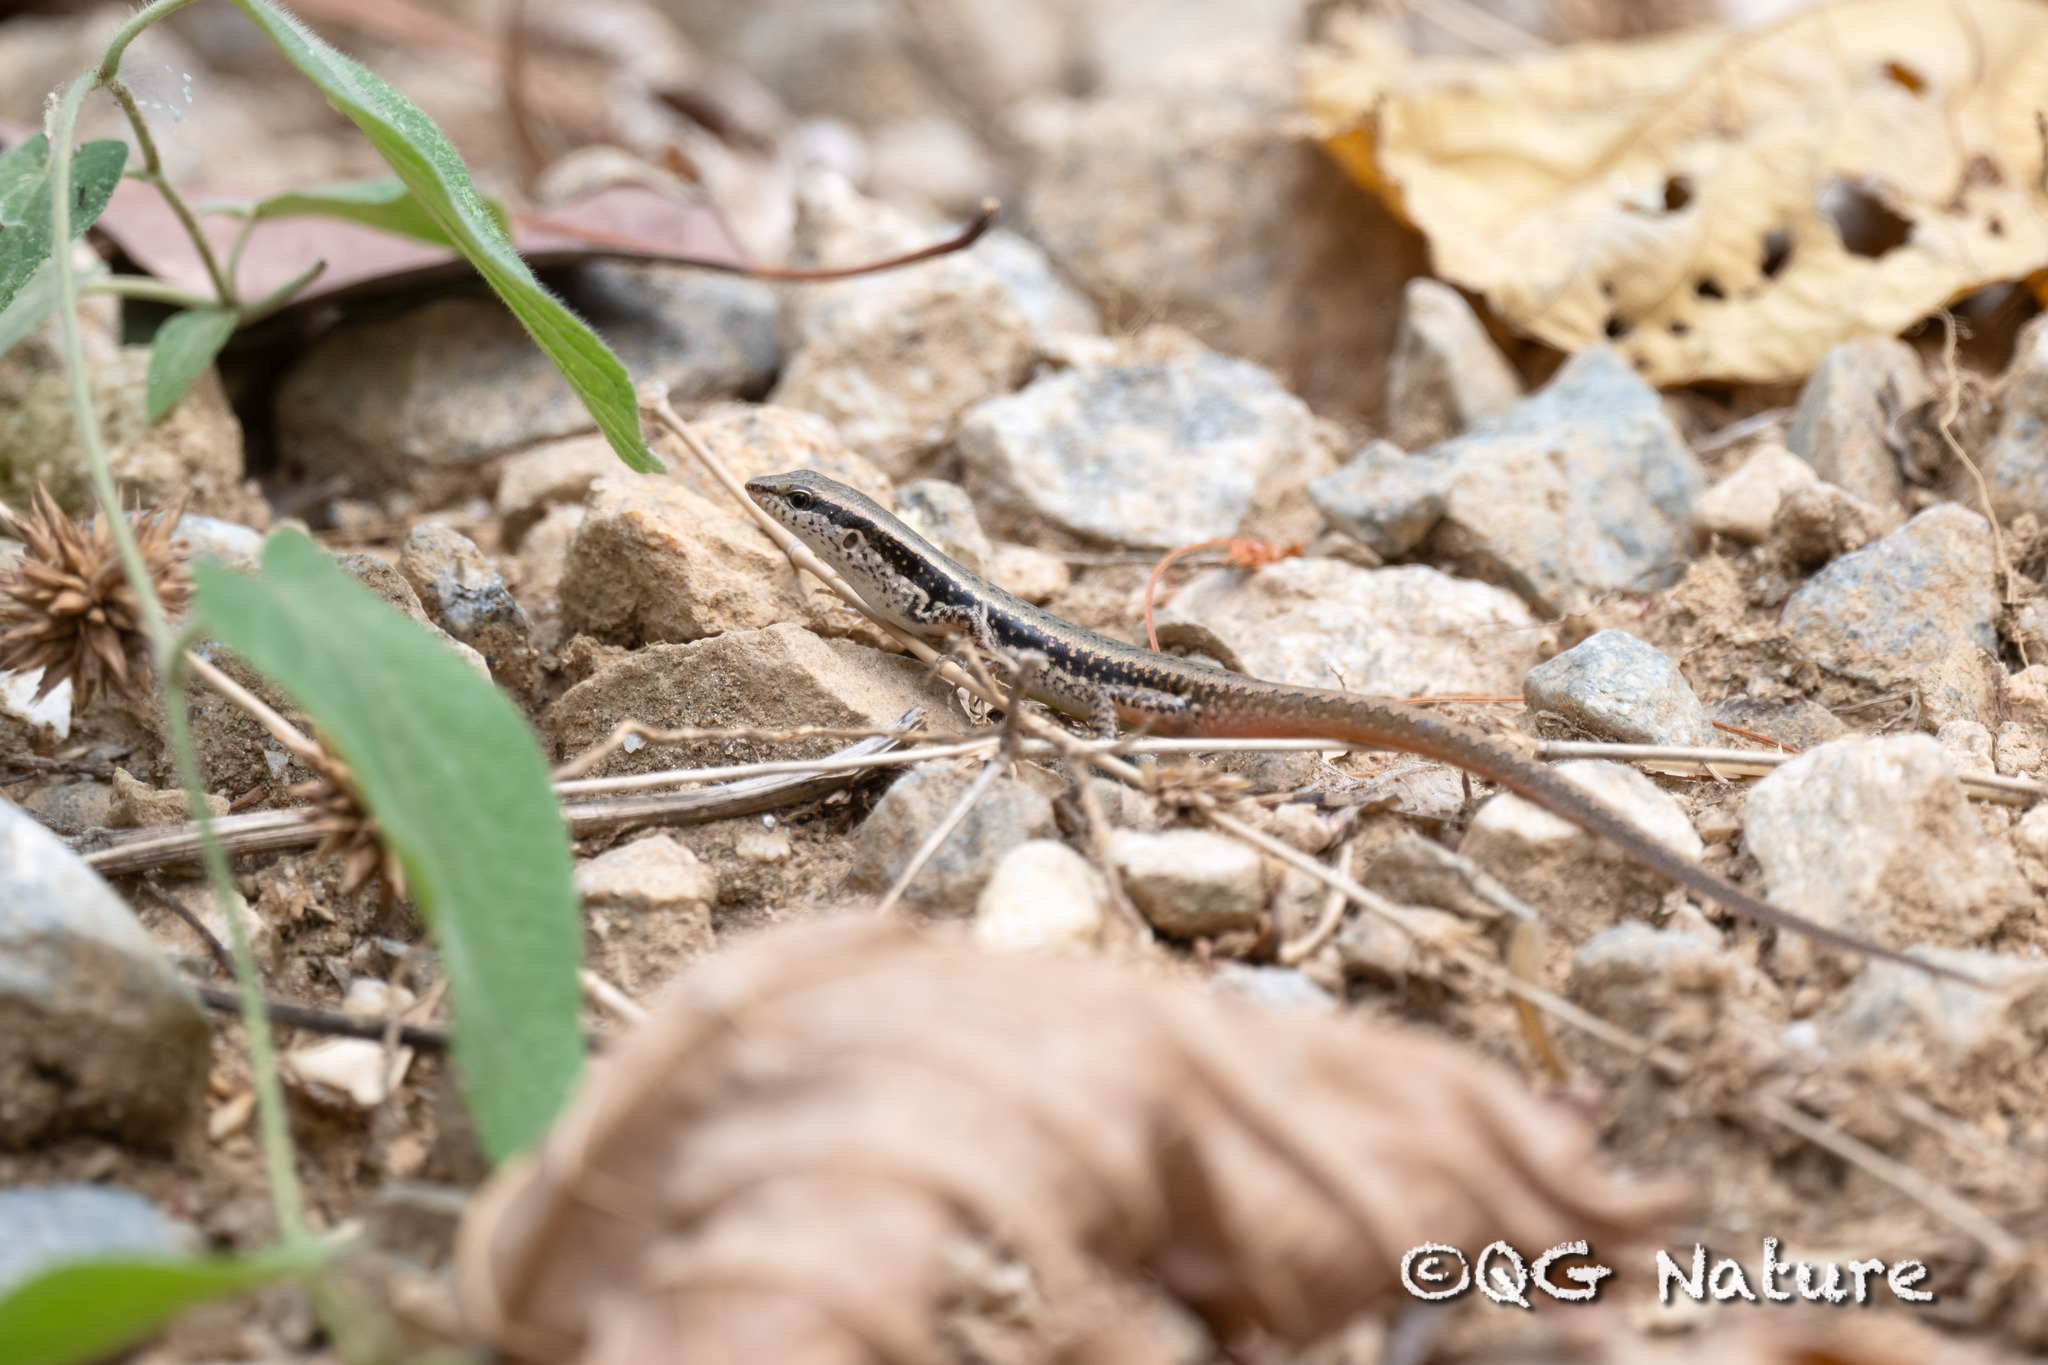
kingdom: Animalia
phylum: Chordata
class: Squamata
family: Scincidae
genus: Sphenomorphus
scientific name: Sphenomorphus maculatus
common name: Maculated forest skink
